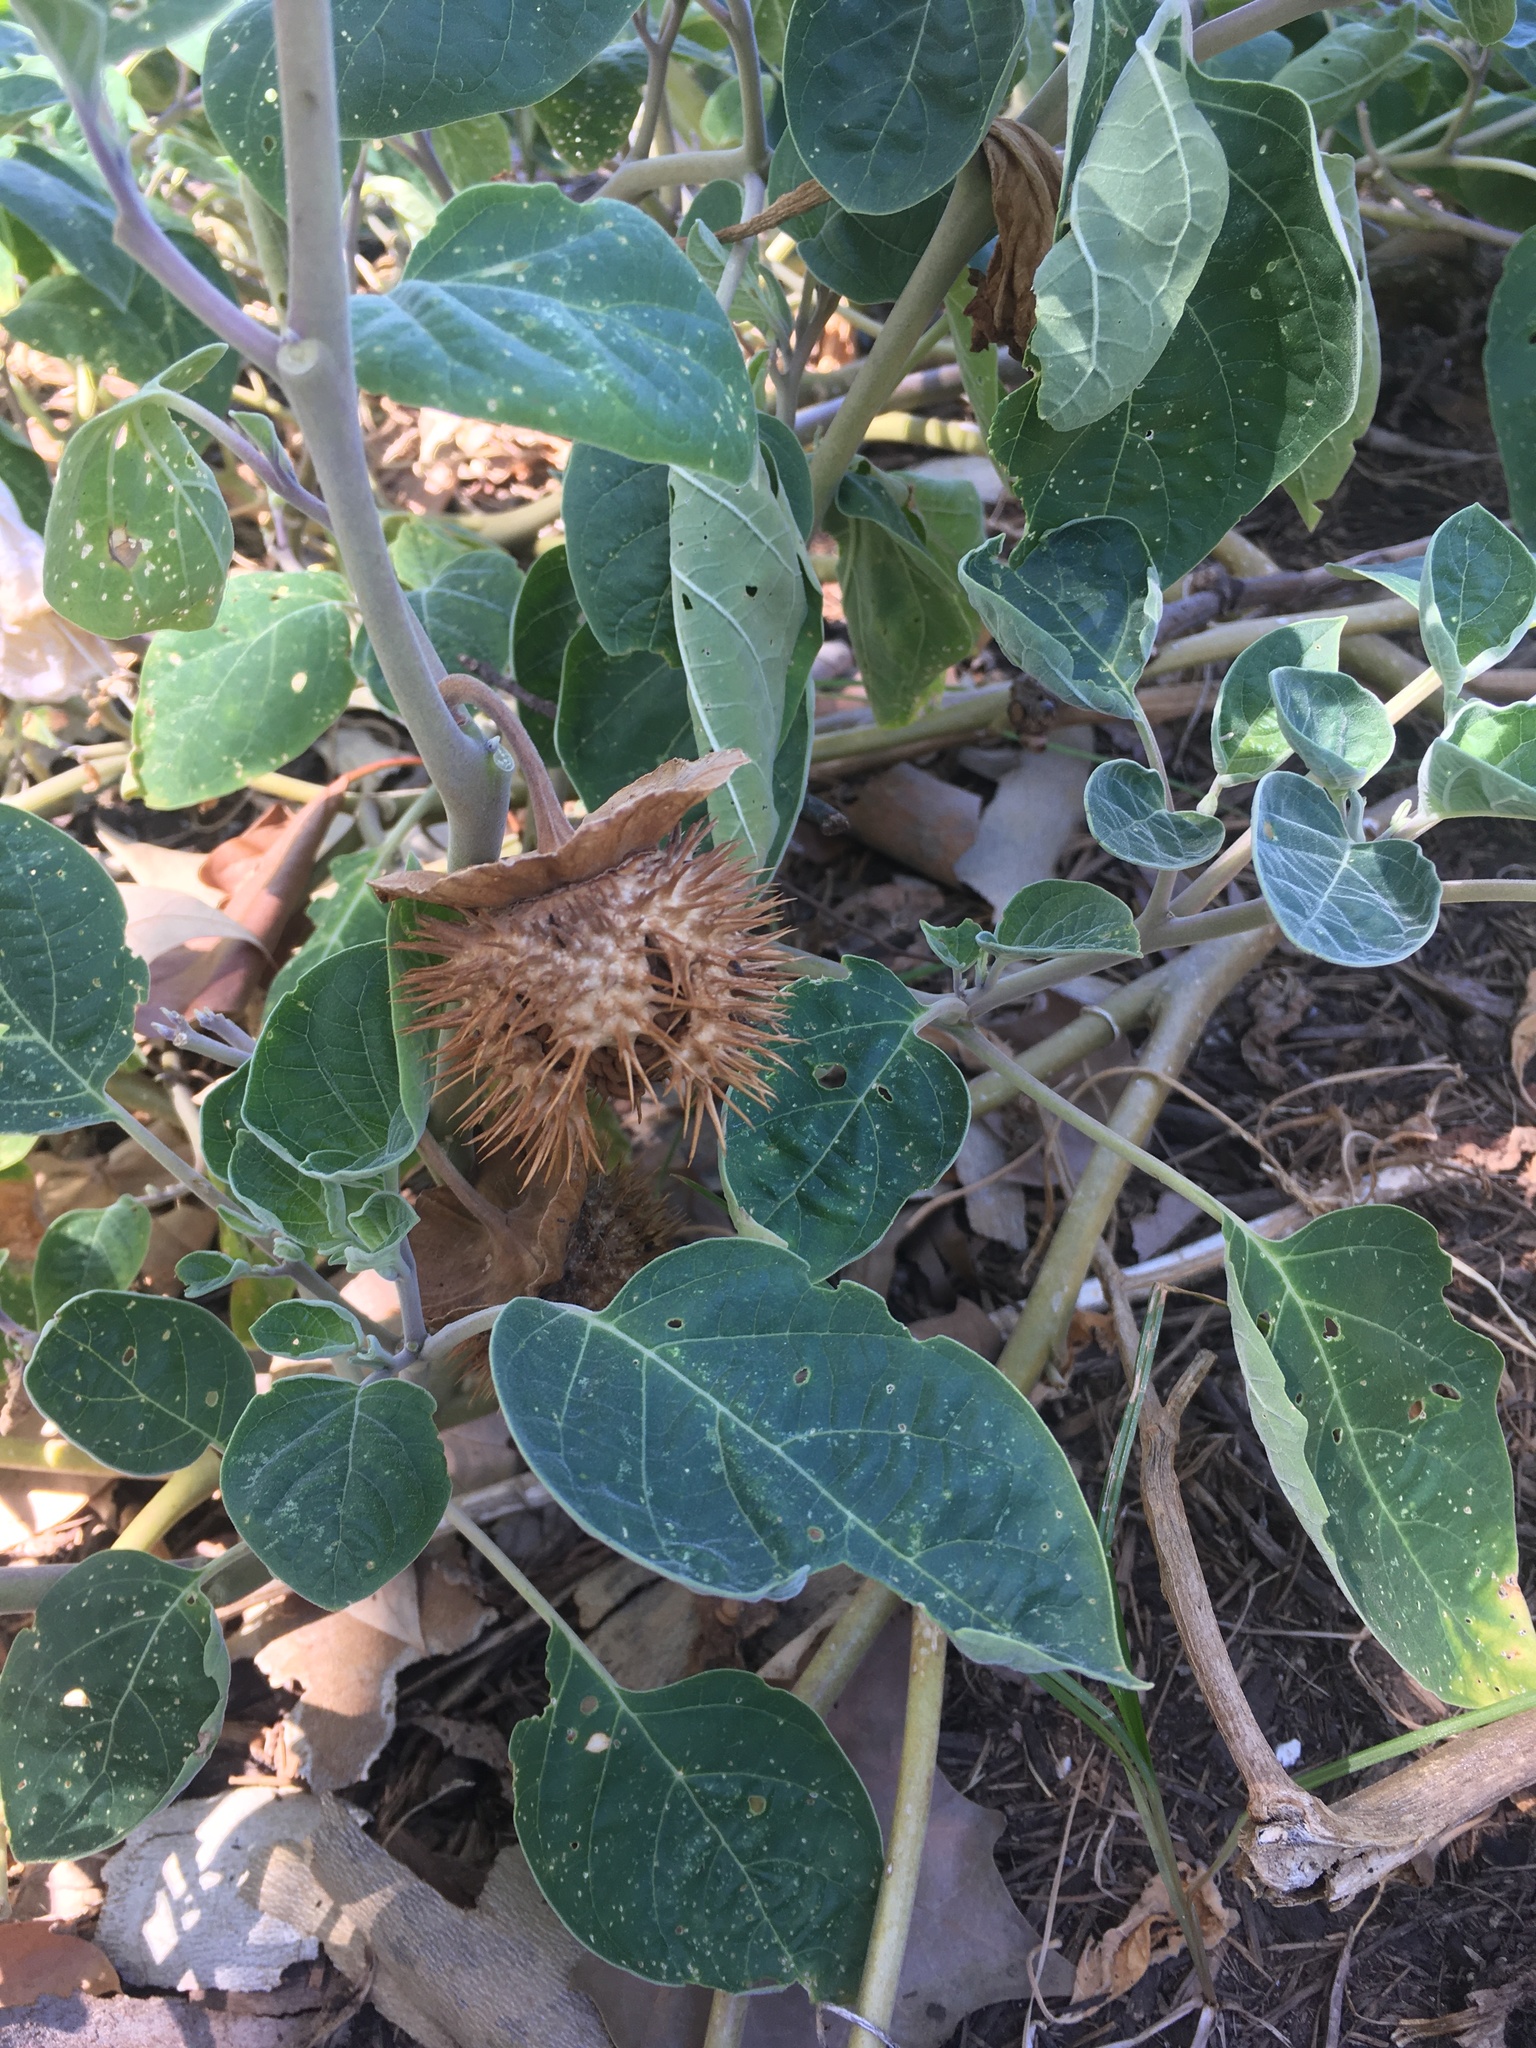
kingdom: Plantae
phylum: Tracheophyta
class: Magnoliopsida
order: Solanales
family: Solanaceae
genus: Datura
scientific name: Datura wrightii
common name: Sacred thorn-apple
